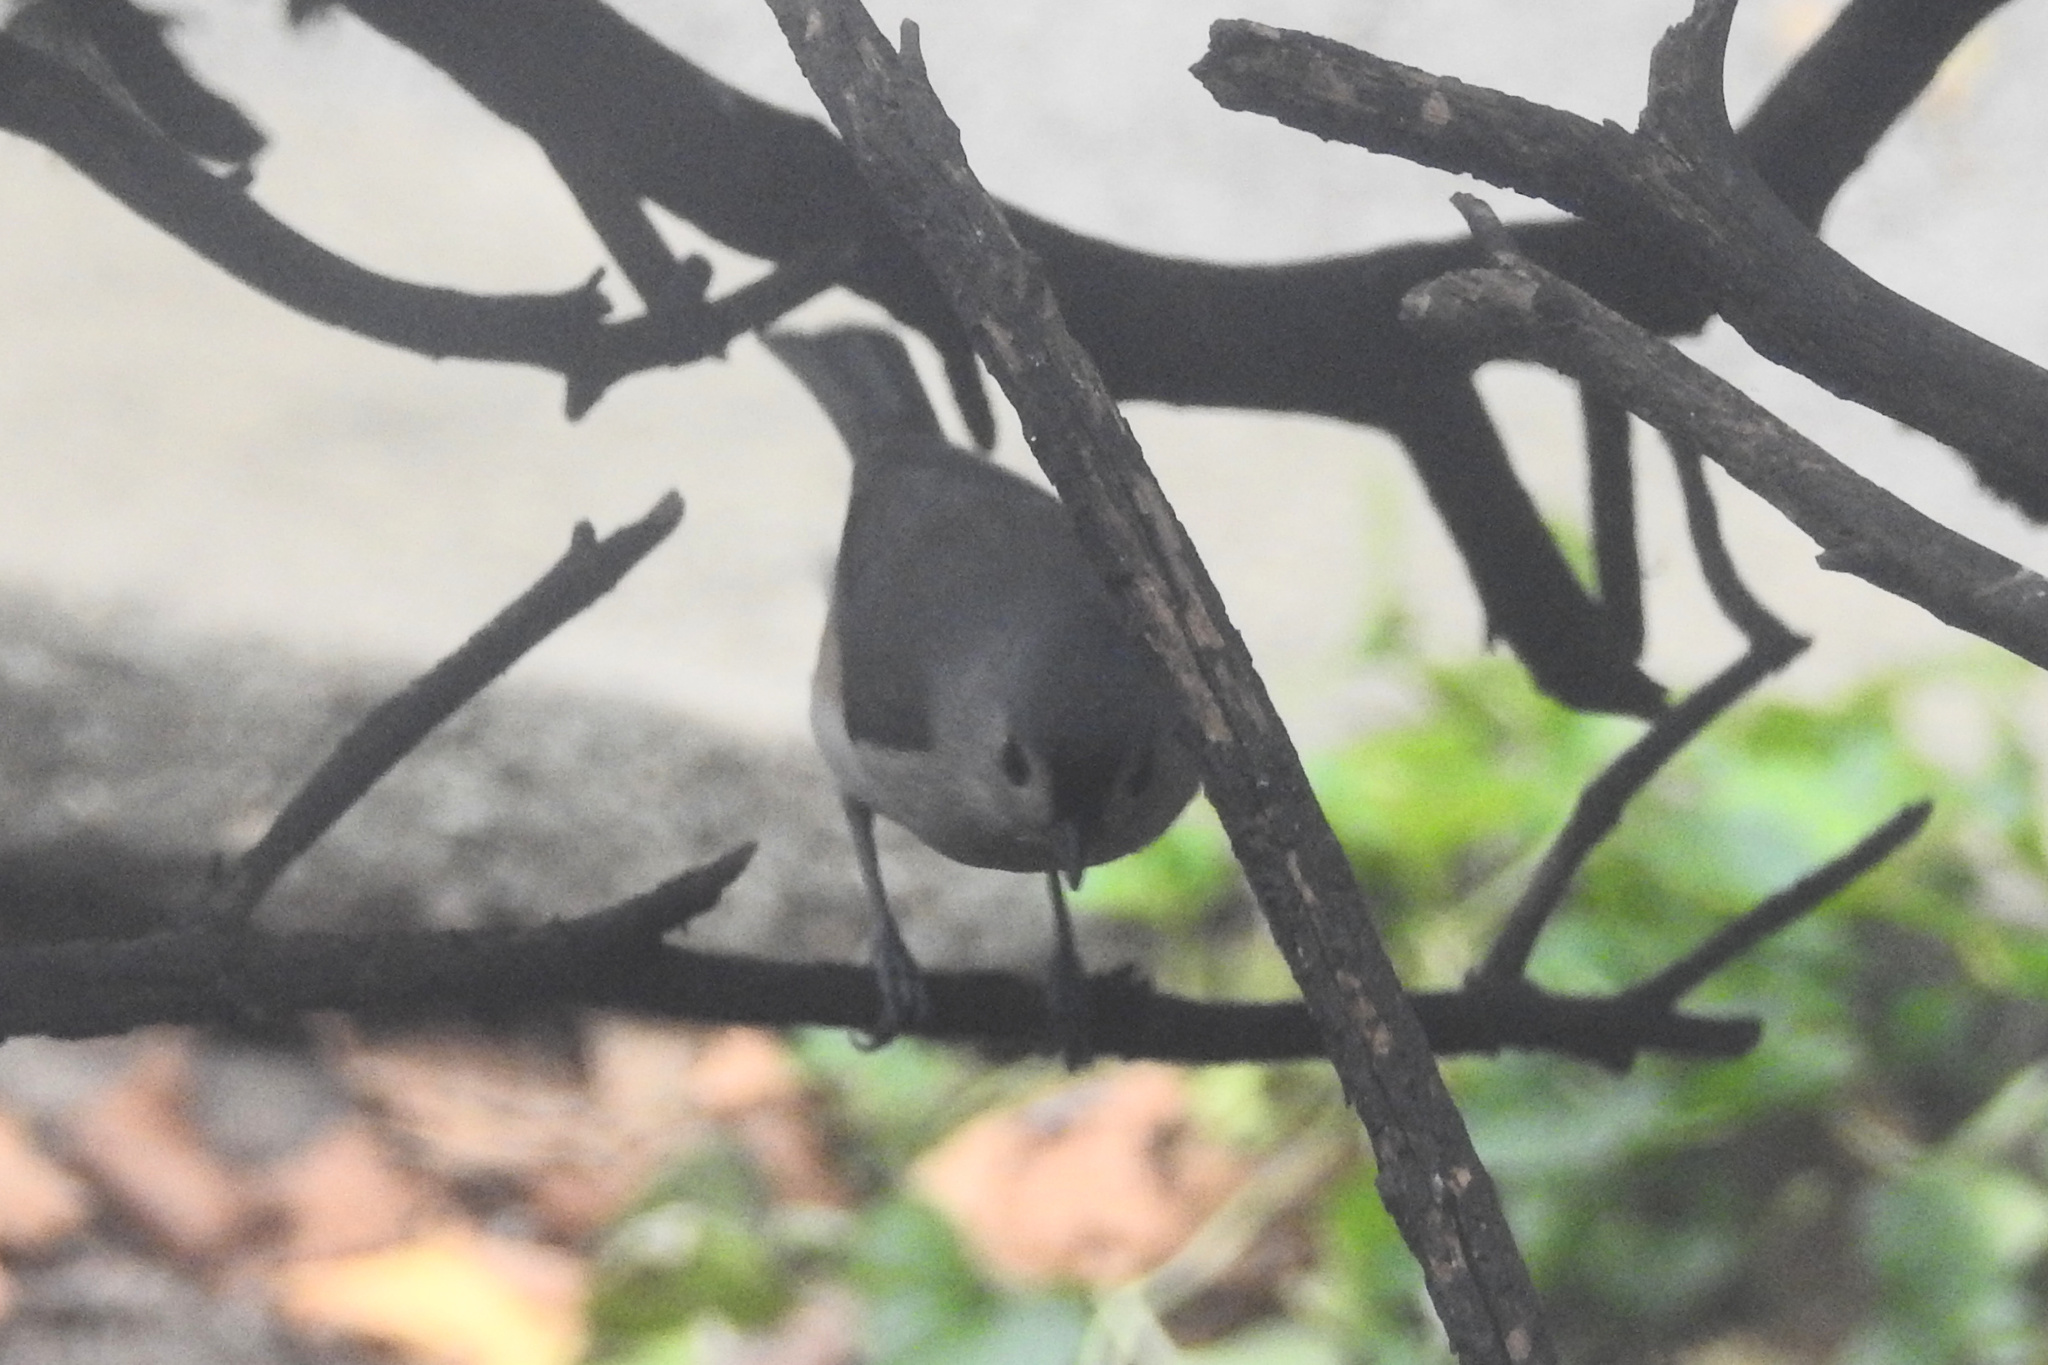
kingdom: Animalia
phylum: Chordata
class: Aves
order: Passeriformes
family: Paridae
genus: Baeolophus
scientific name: Baeolophus bicolor
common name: Tufted titmouse
